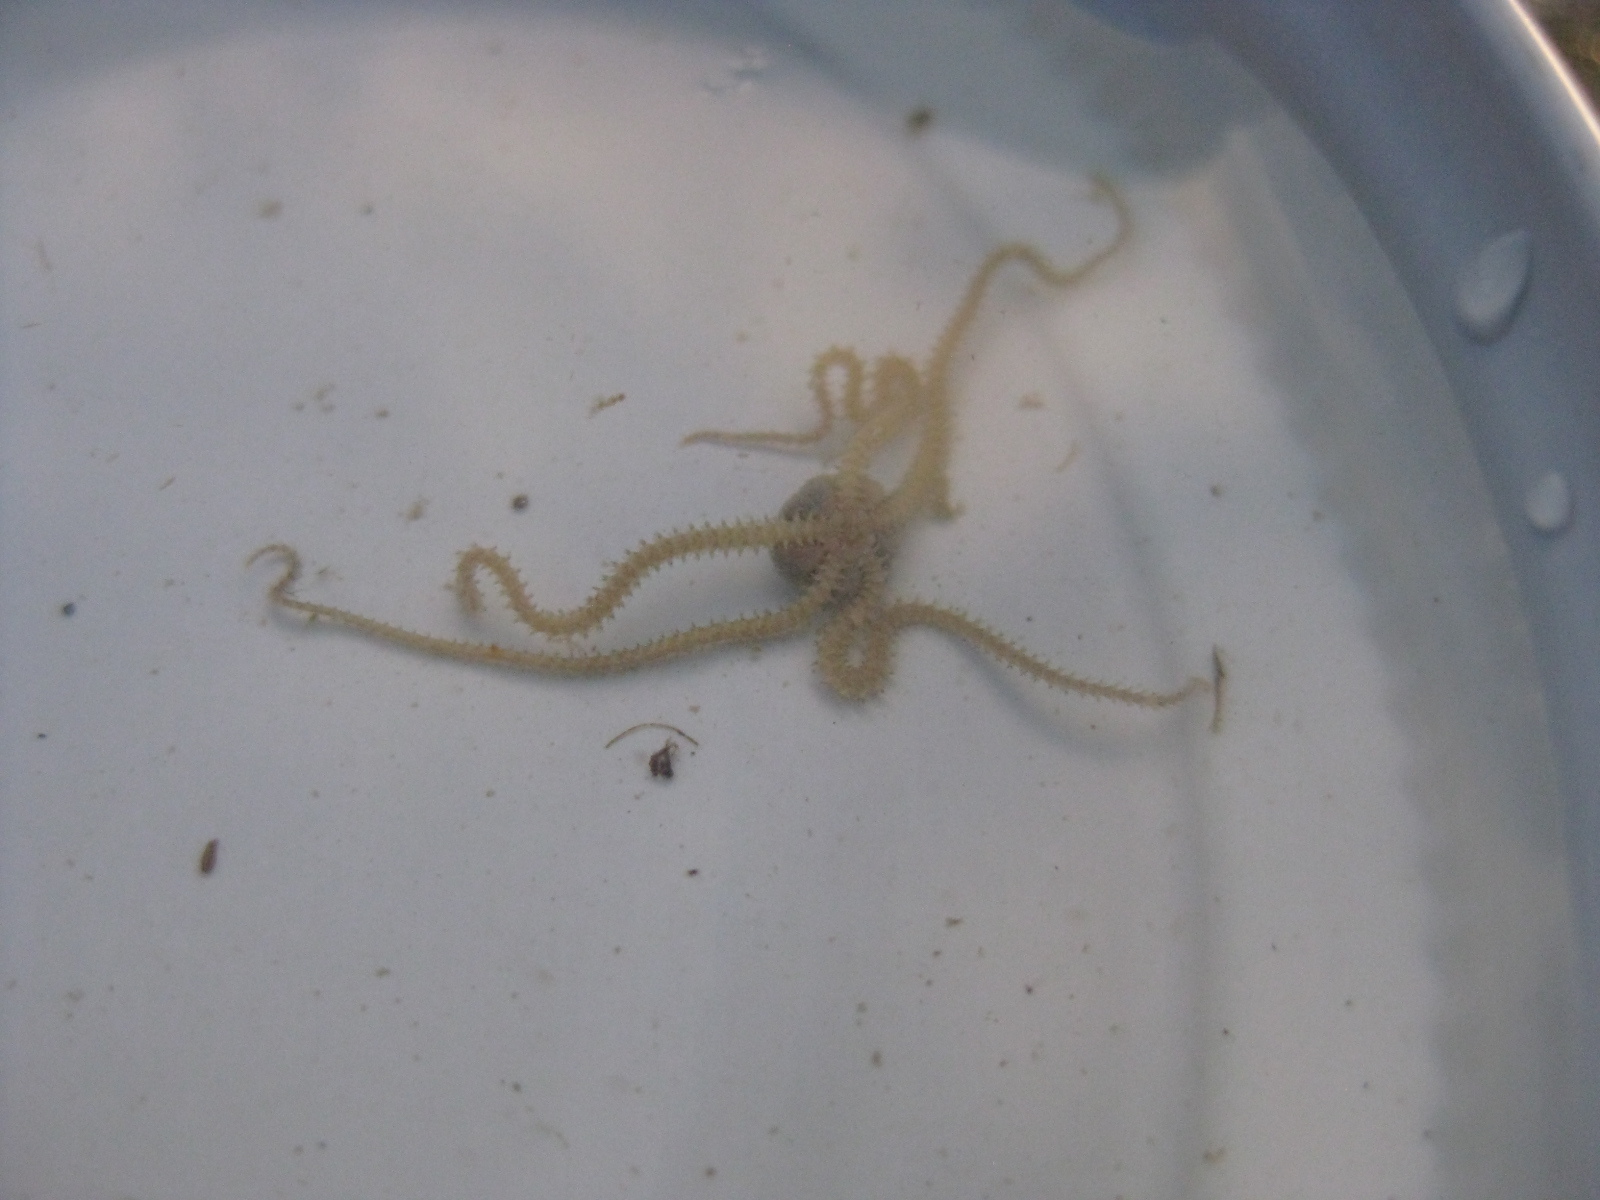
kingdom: Animalia
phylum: Echinodermata
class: Ophiuroidea
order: Amphilepidida
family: Amphiuridae
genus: Amphipholis
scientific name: Amphipholis squamata
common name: Brooding snake star
